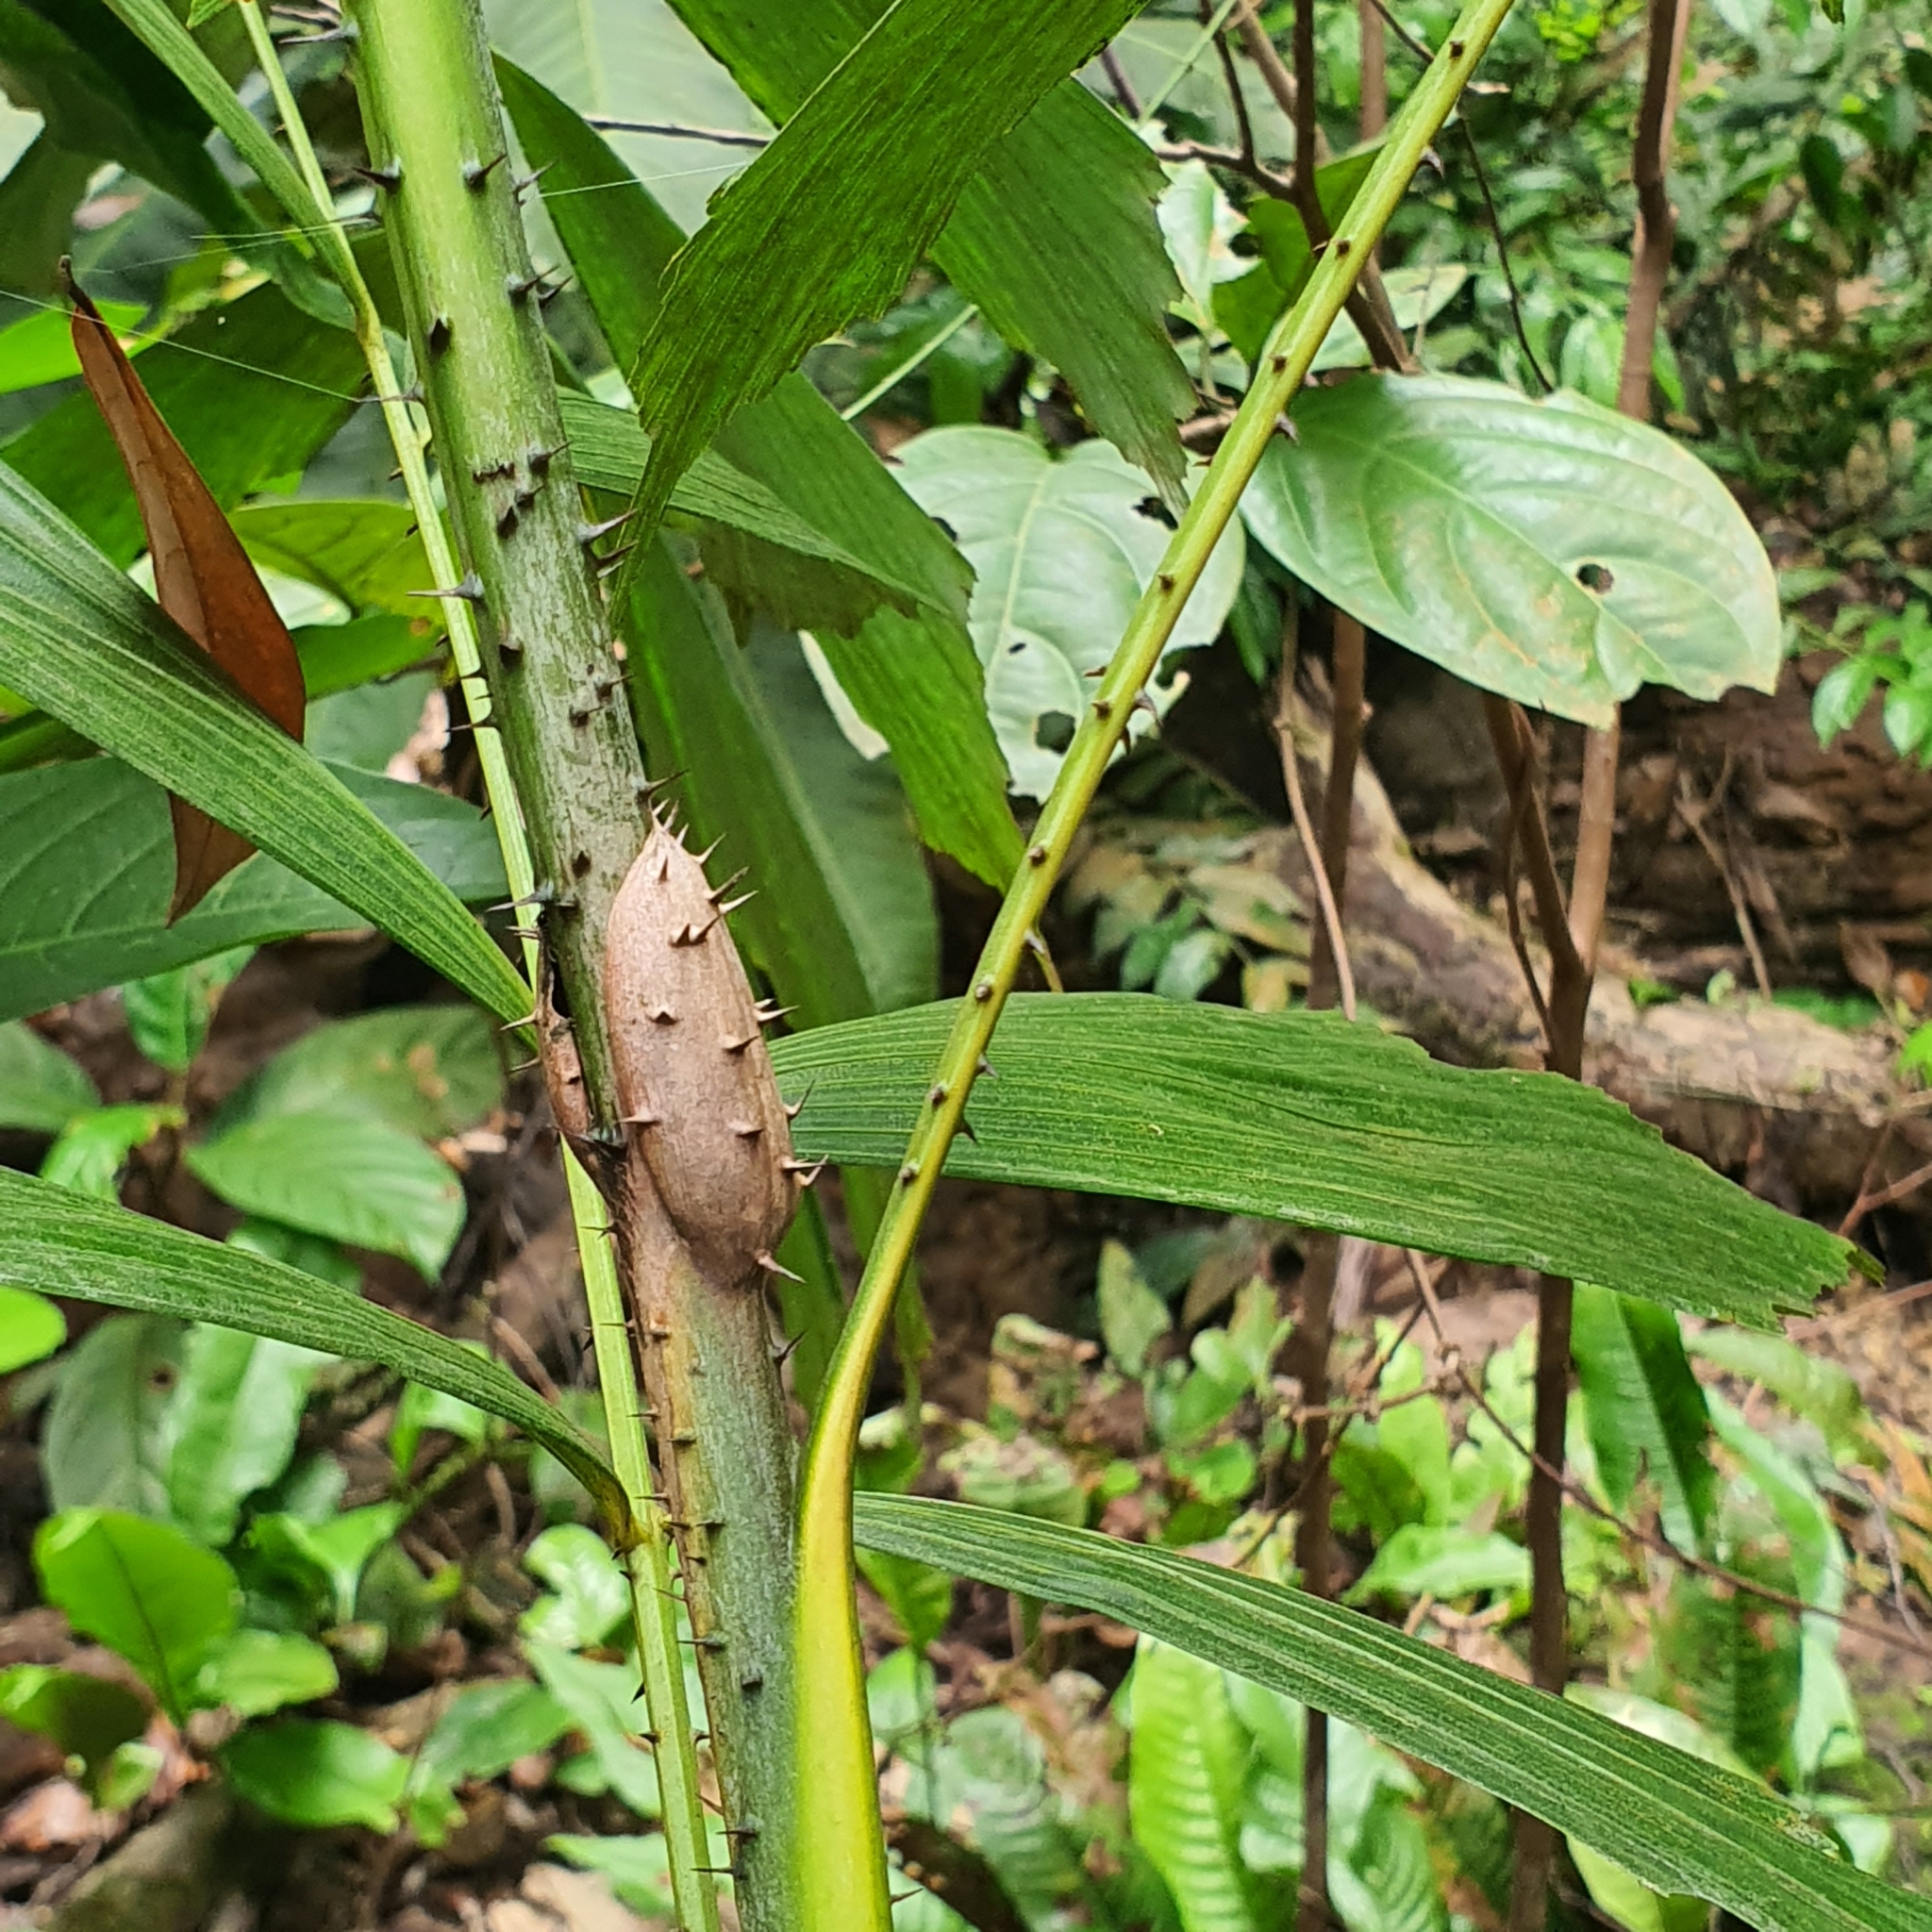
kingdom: Plantae
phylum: Tracheophyta
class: Liliopsida
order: Arecales
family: Arecaceae
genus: Korthalsia
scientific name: Korthalsia rostrata
